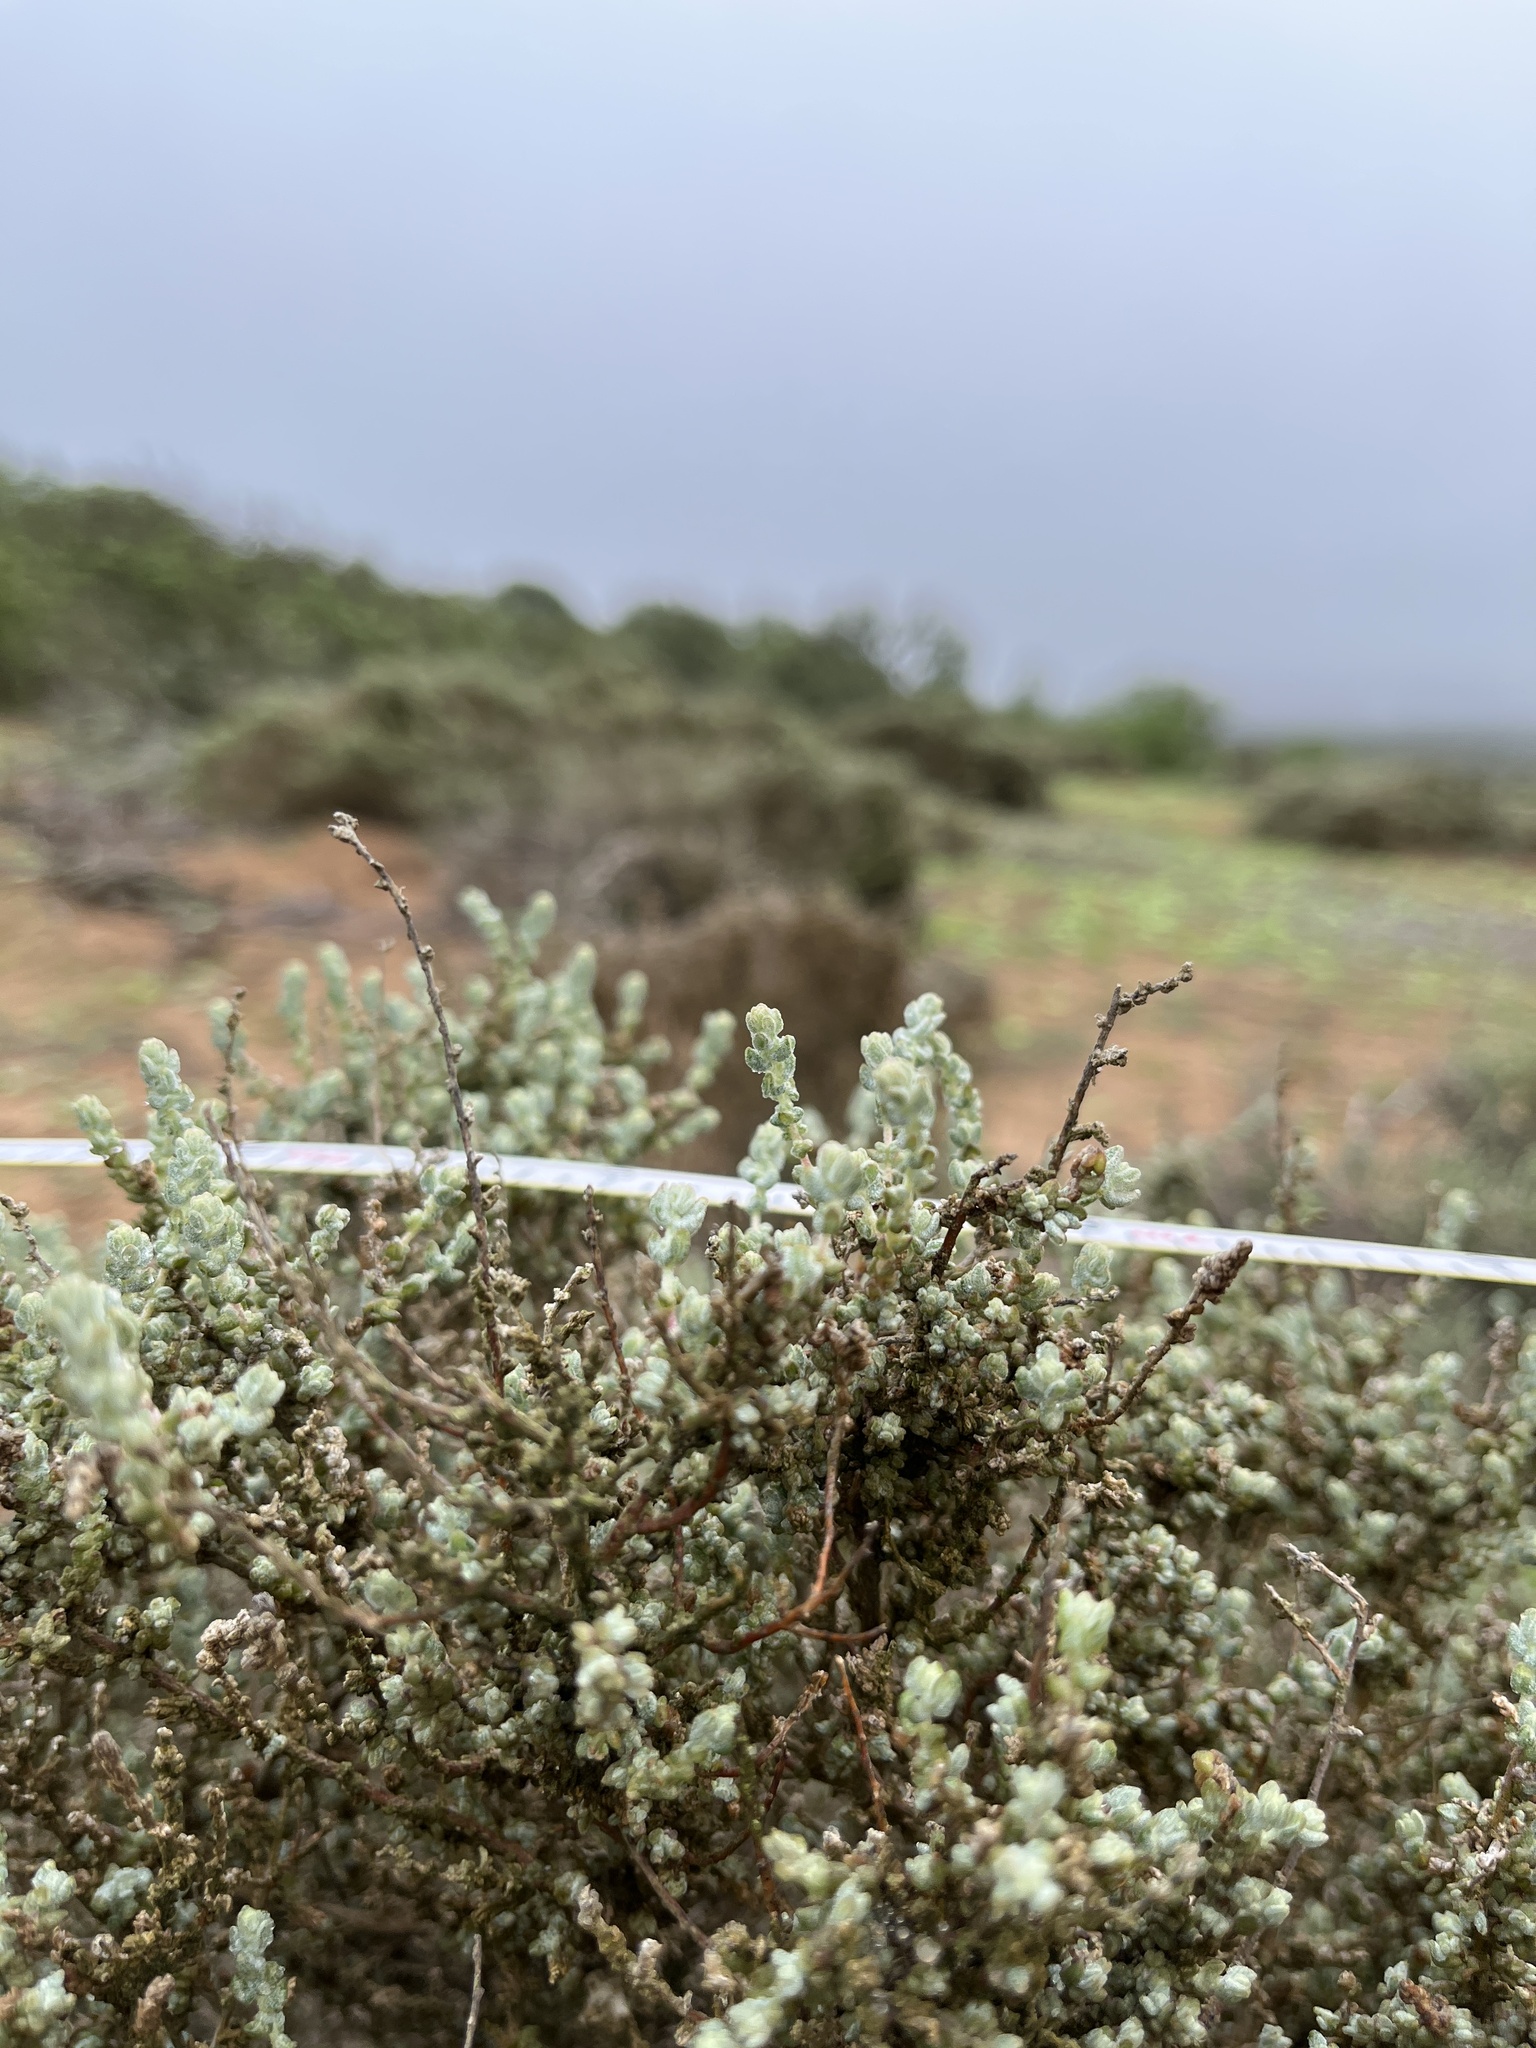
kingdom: Plantae
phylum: Tracheophyta
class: Magnoliopsida
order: Caryophyllales
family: Amaranthaceae
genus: Atriplex
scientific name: Atriplex julacea
